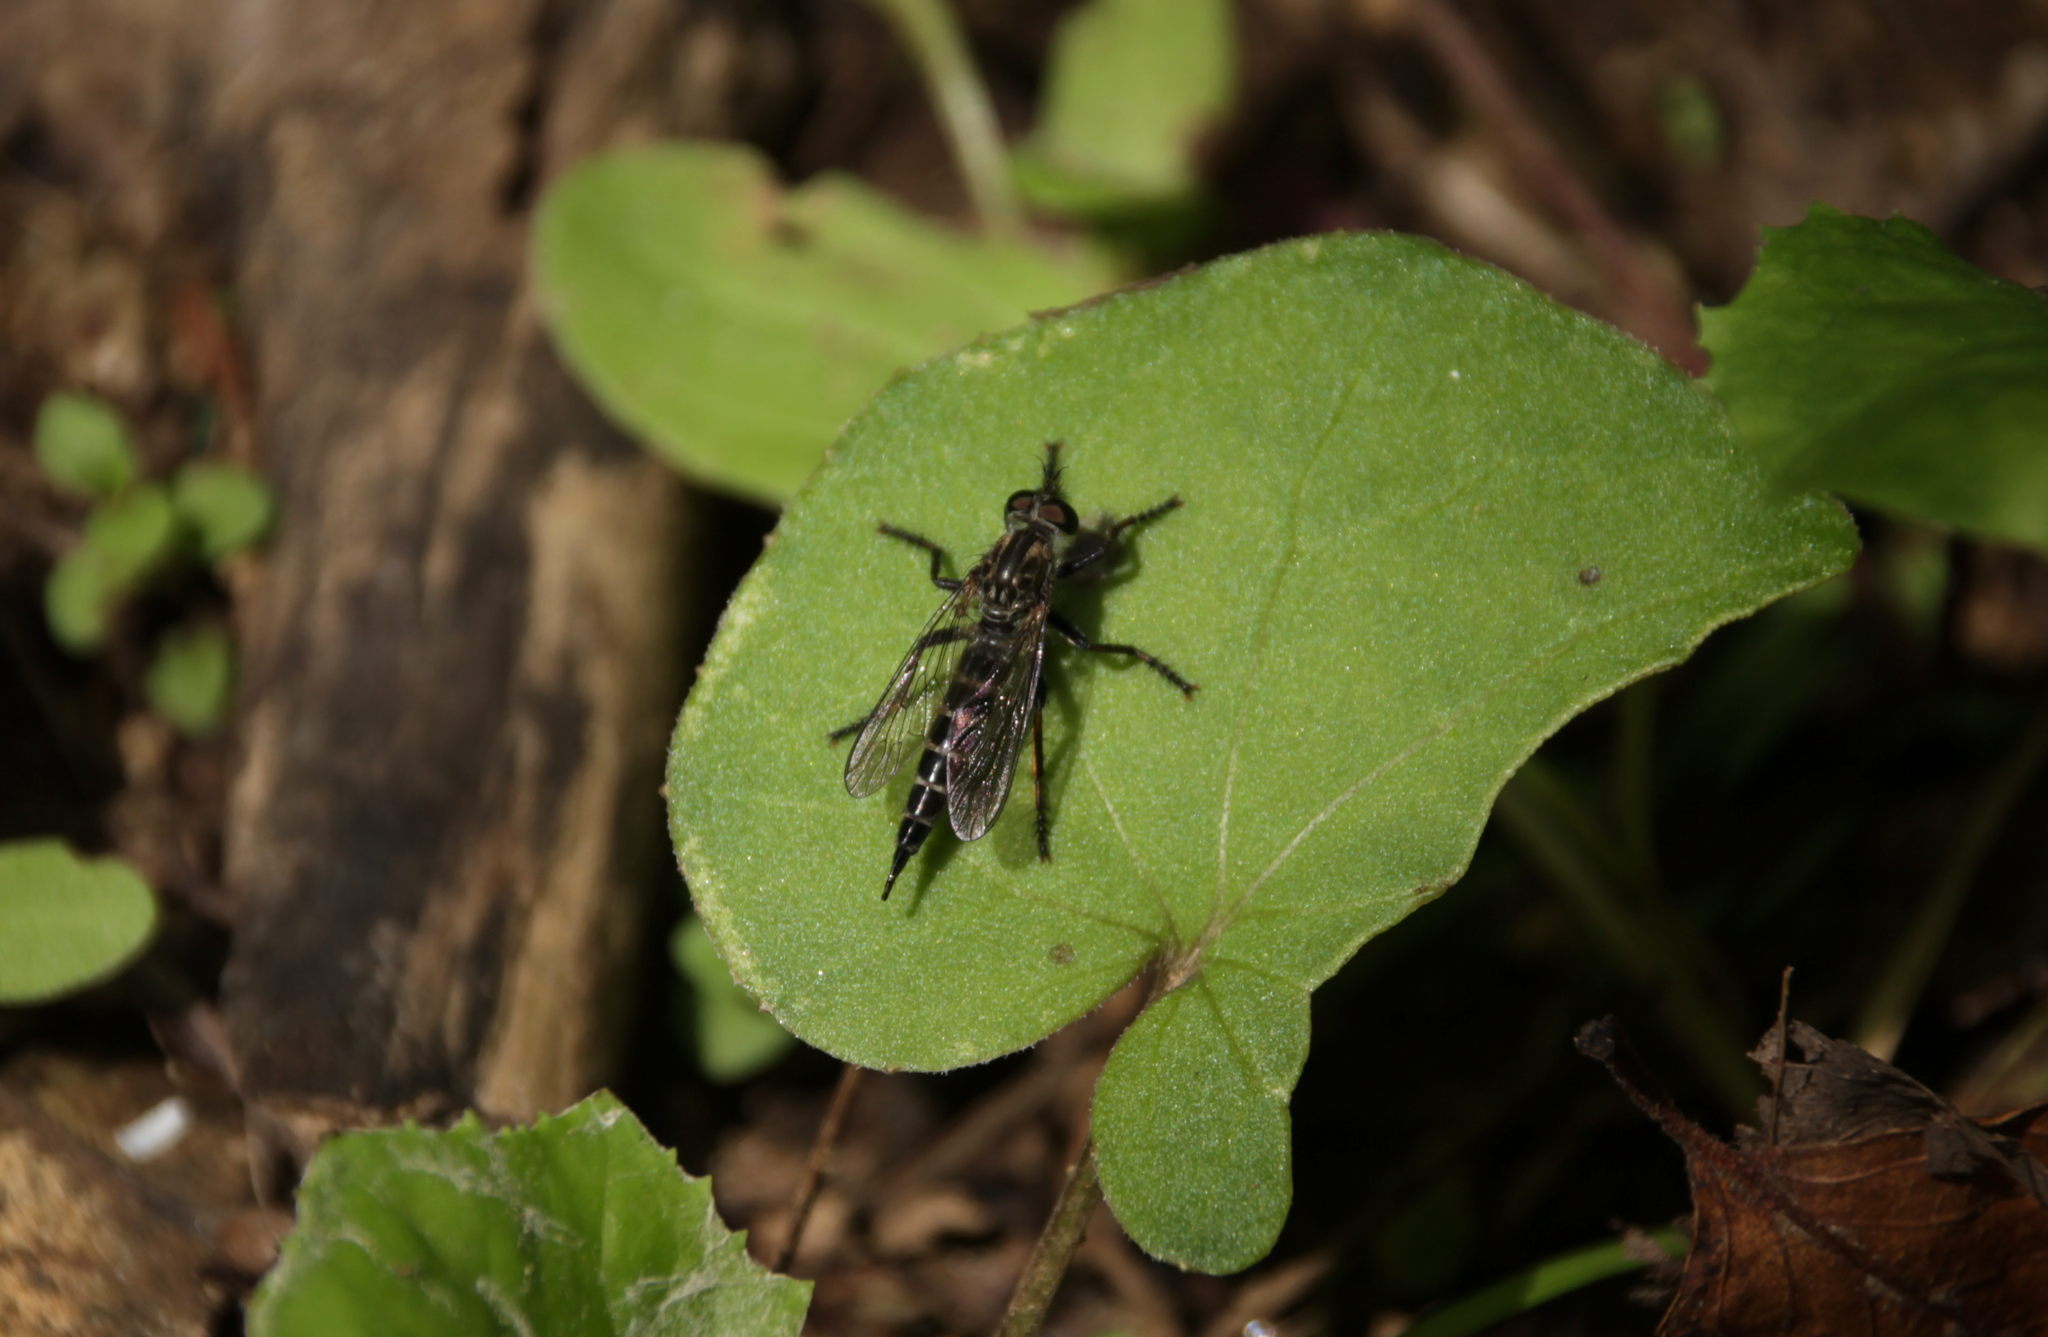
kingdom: Animalia
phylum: Arthropoda
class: Insecta
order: Diptera
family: Asilidae
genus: Machimus
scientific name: Machimus
